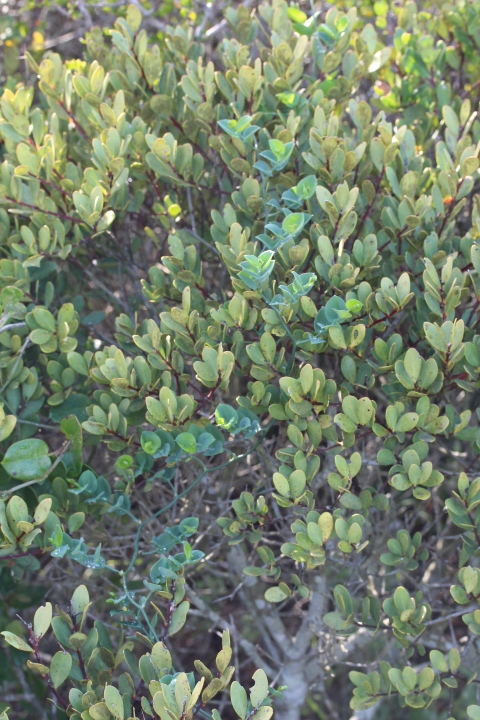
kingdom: Plantae
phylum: Tracheophyta
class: Magnoliopsida
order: Santalales
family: Santalaceae
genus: Osyris
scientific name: Osyris compressa
